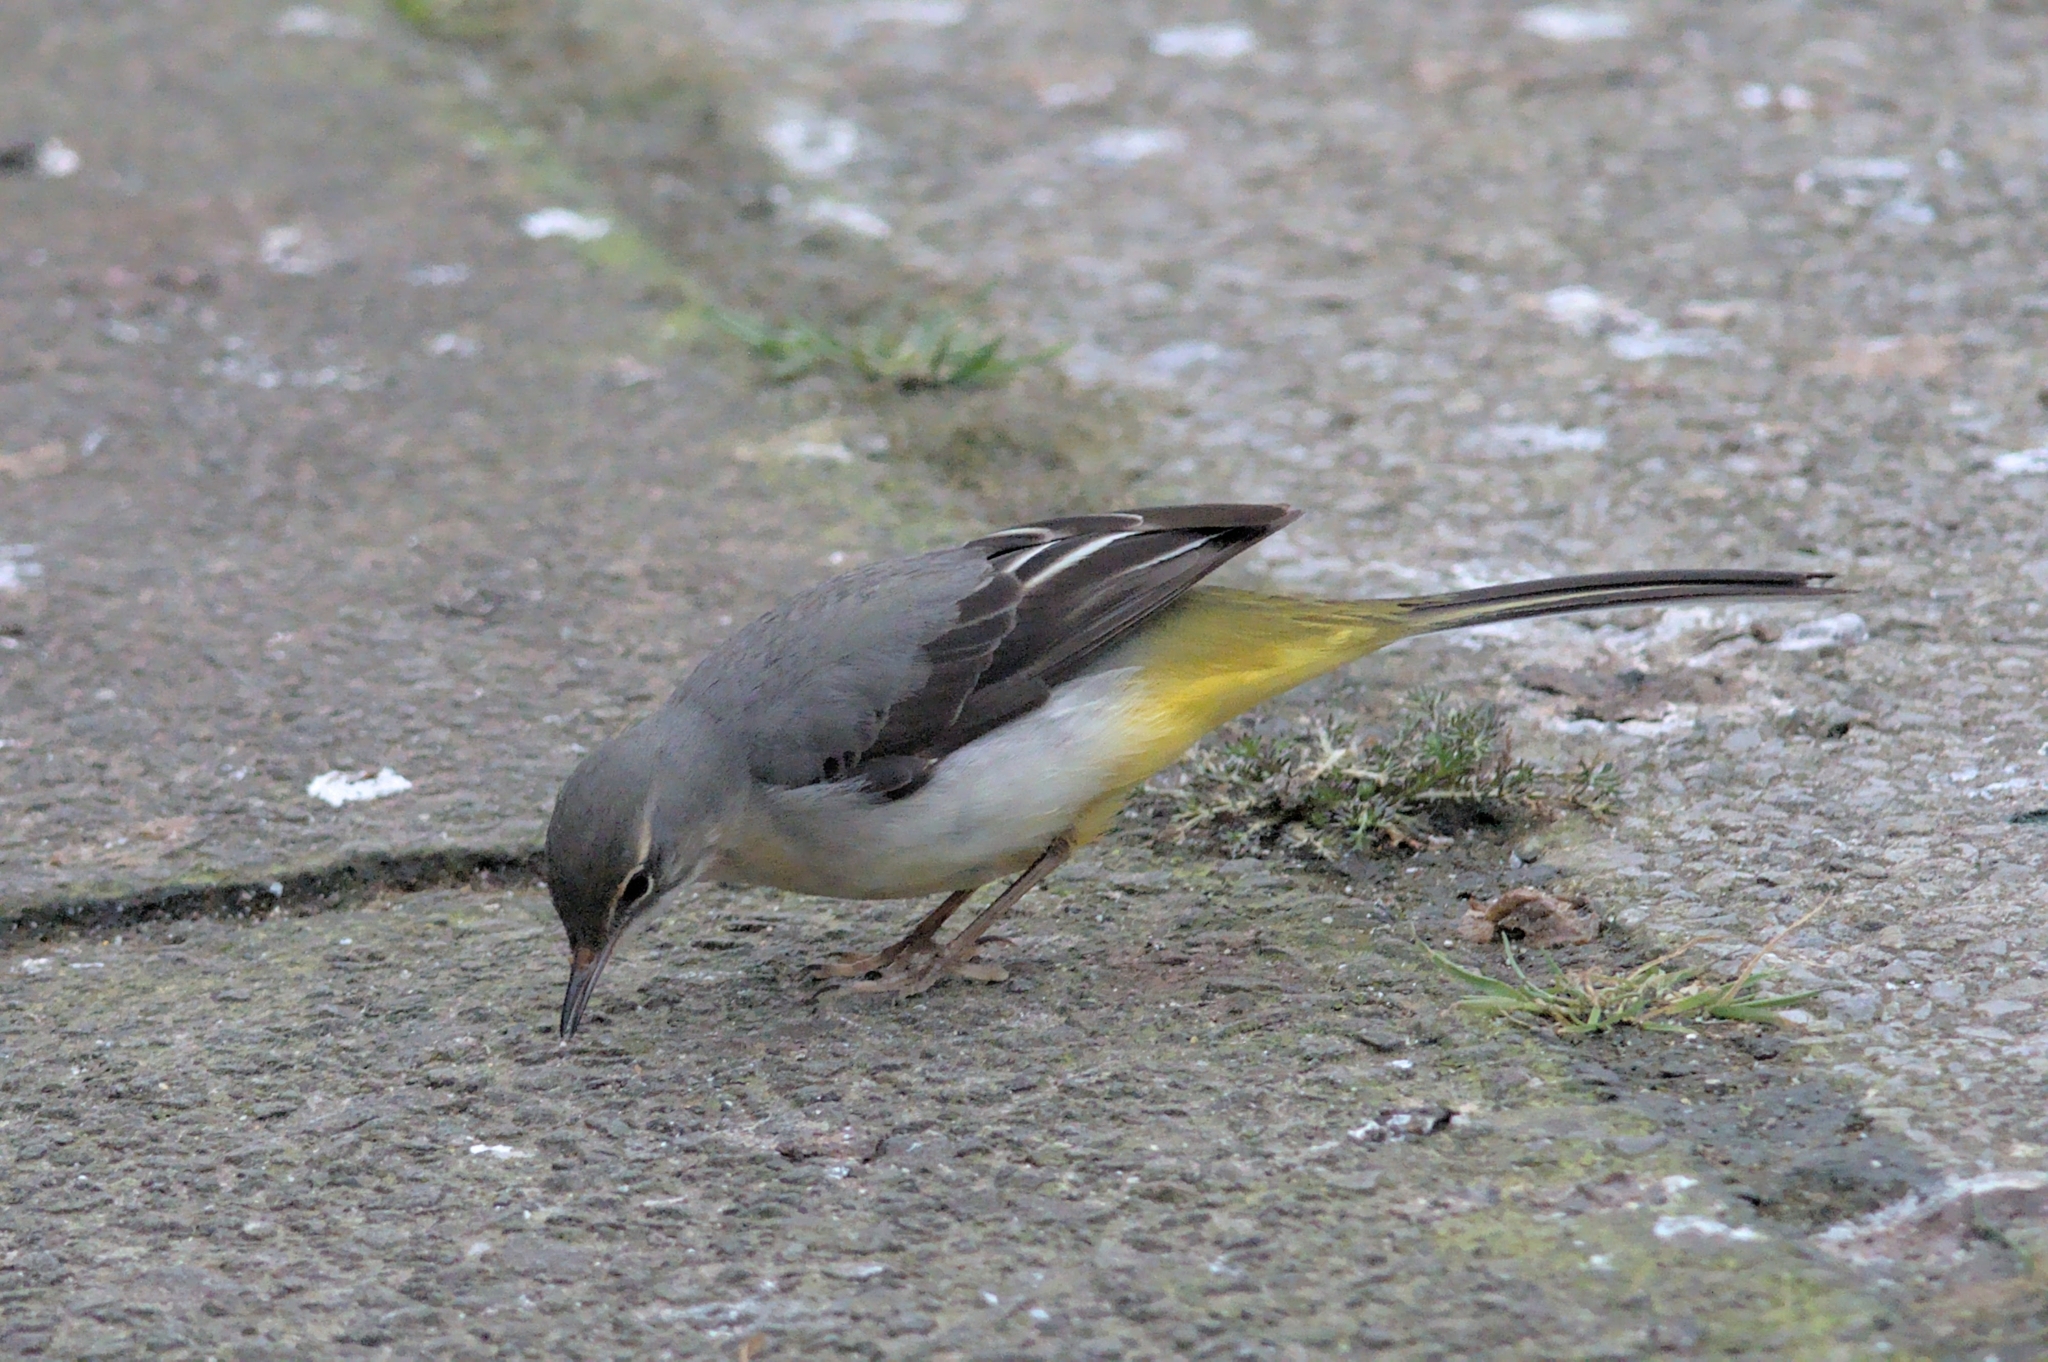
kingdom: Animalia
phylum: Chordata
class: Aves
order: Passeriformes
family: Motacillidae
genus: Motacilla
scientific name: Motacilla cinerea
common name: Grey wagtail
